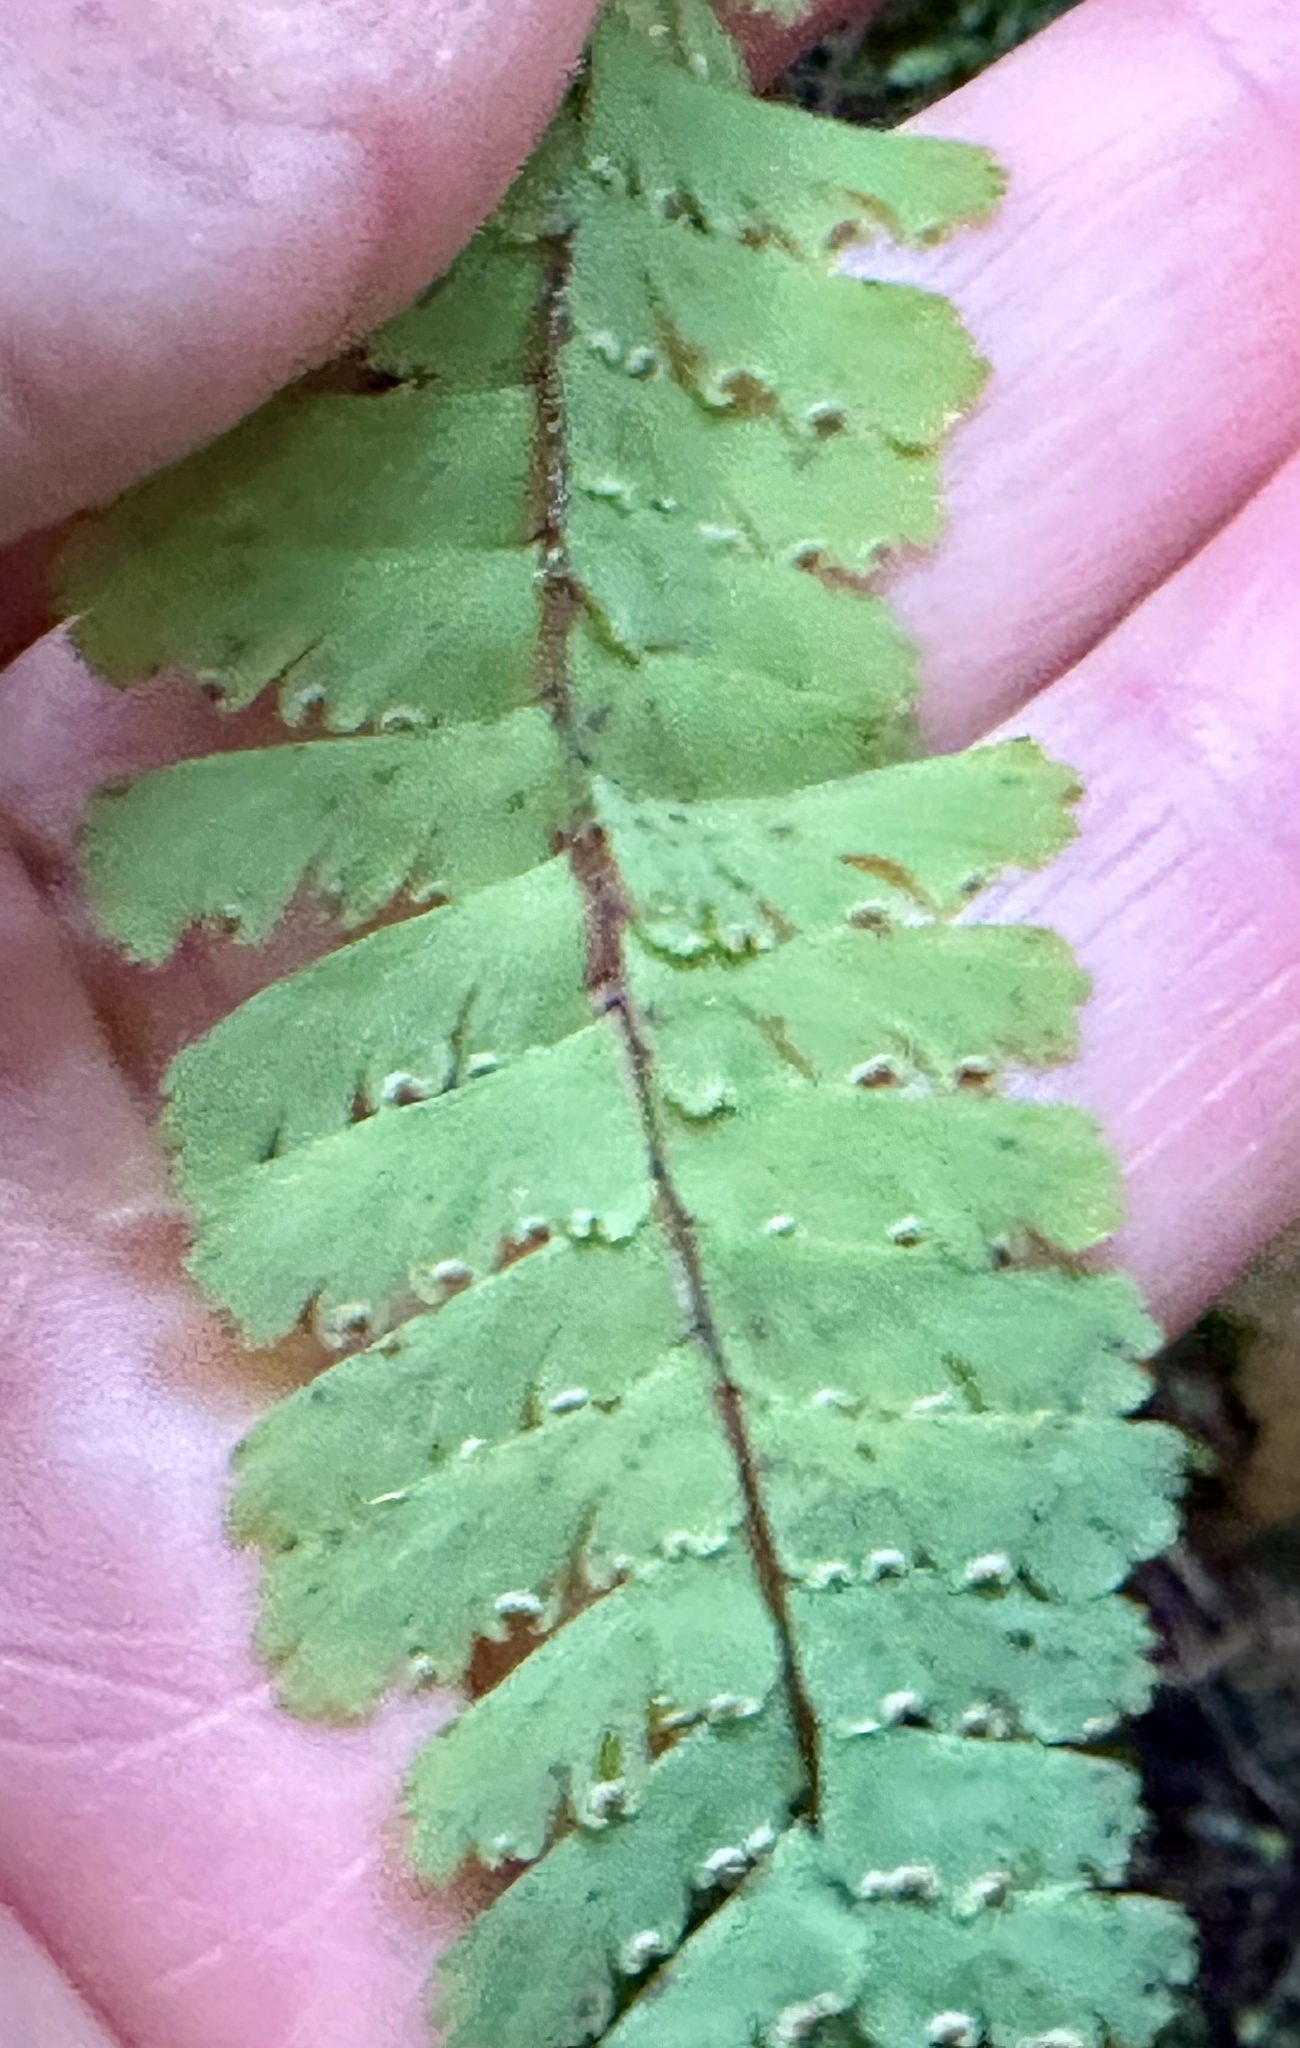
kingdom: Plantae
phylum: Tracheophyta
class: Polypodiopsida
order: Polypodiales
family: Pteridaceae
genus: Adiantum
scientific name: Adiantum aleuticum
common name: Aleutian maidenhair fern
